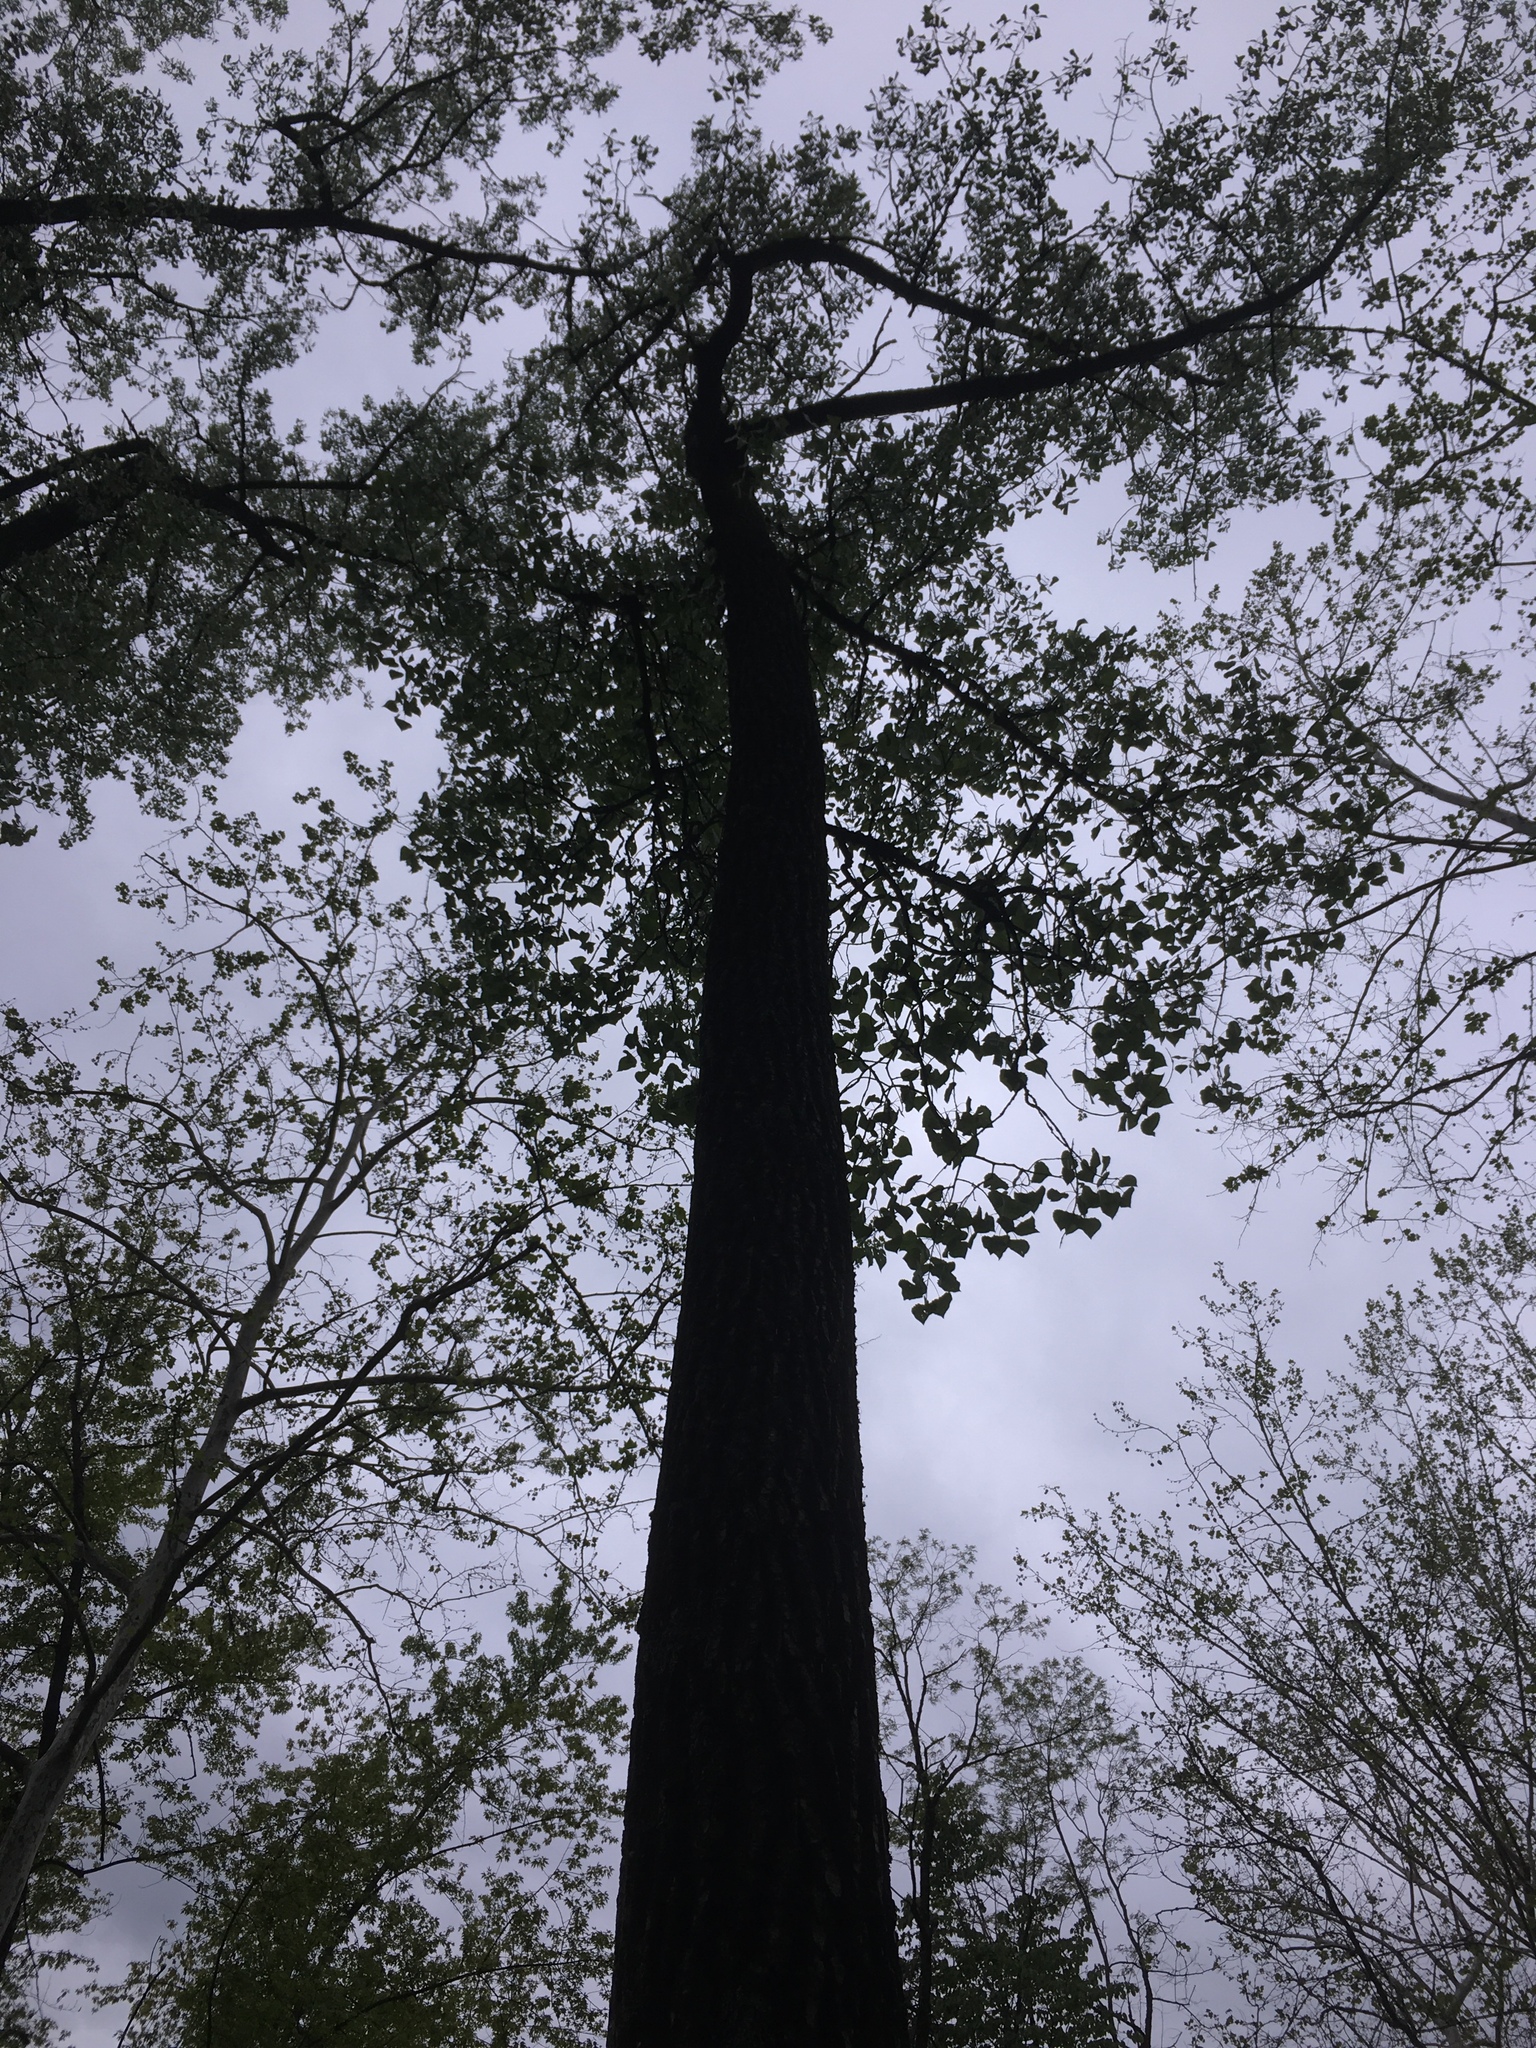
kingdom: Plantae
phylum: Tracheophyta
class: Magnoliopsida
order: Malpighiales
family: Salicaceae
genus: Populus
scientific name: Populus deltoides
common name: Eastern cottonwood
